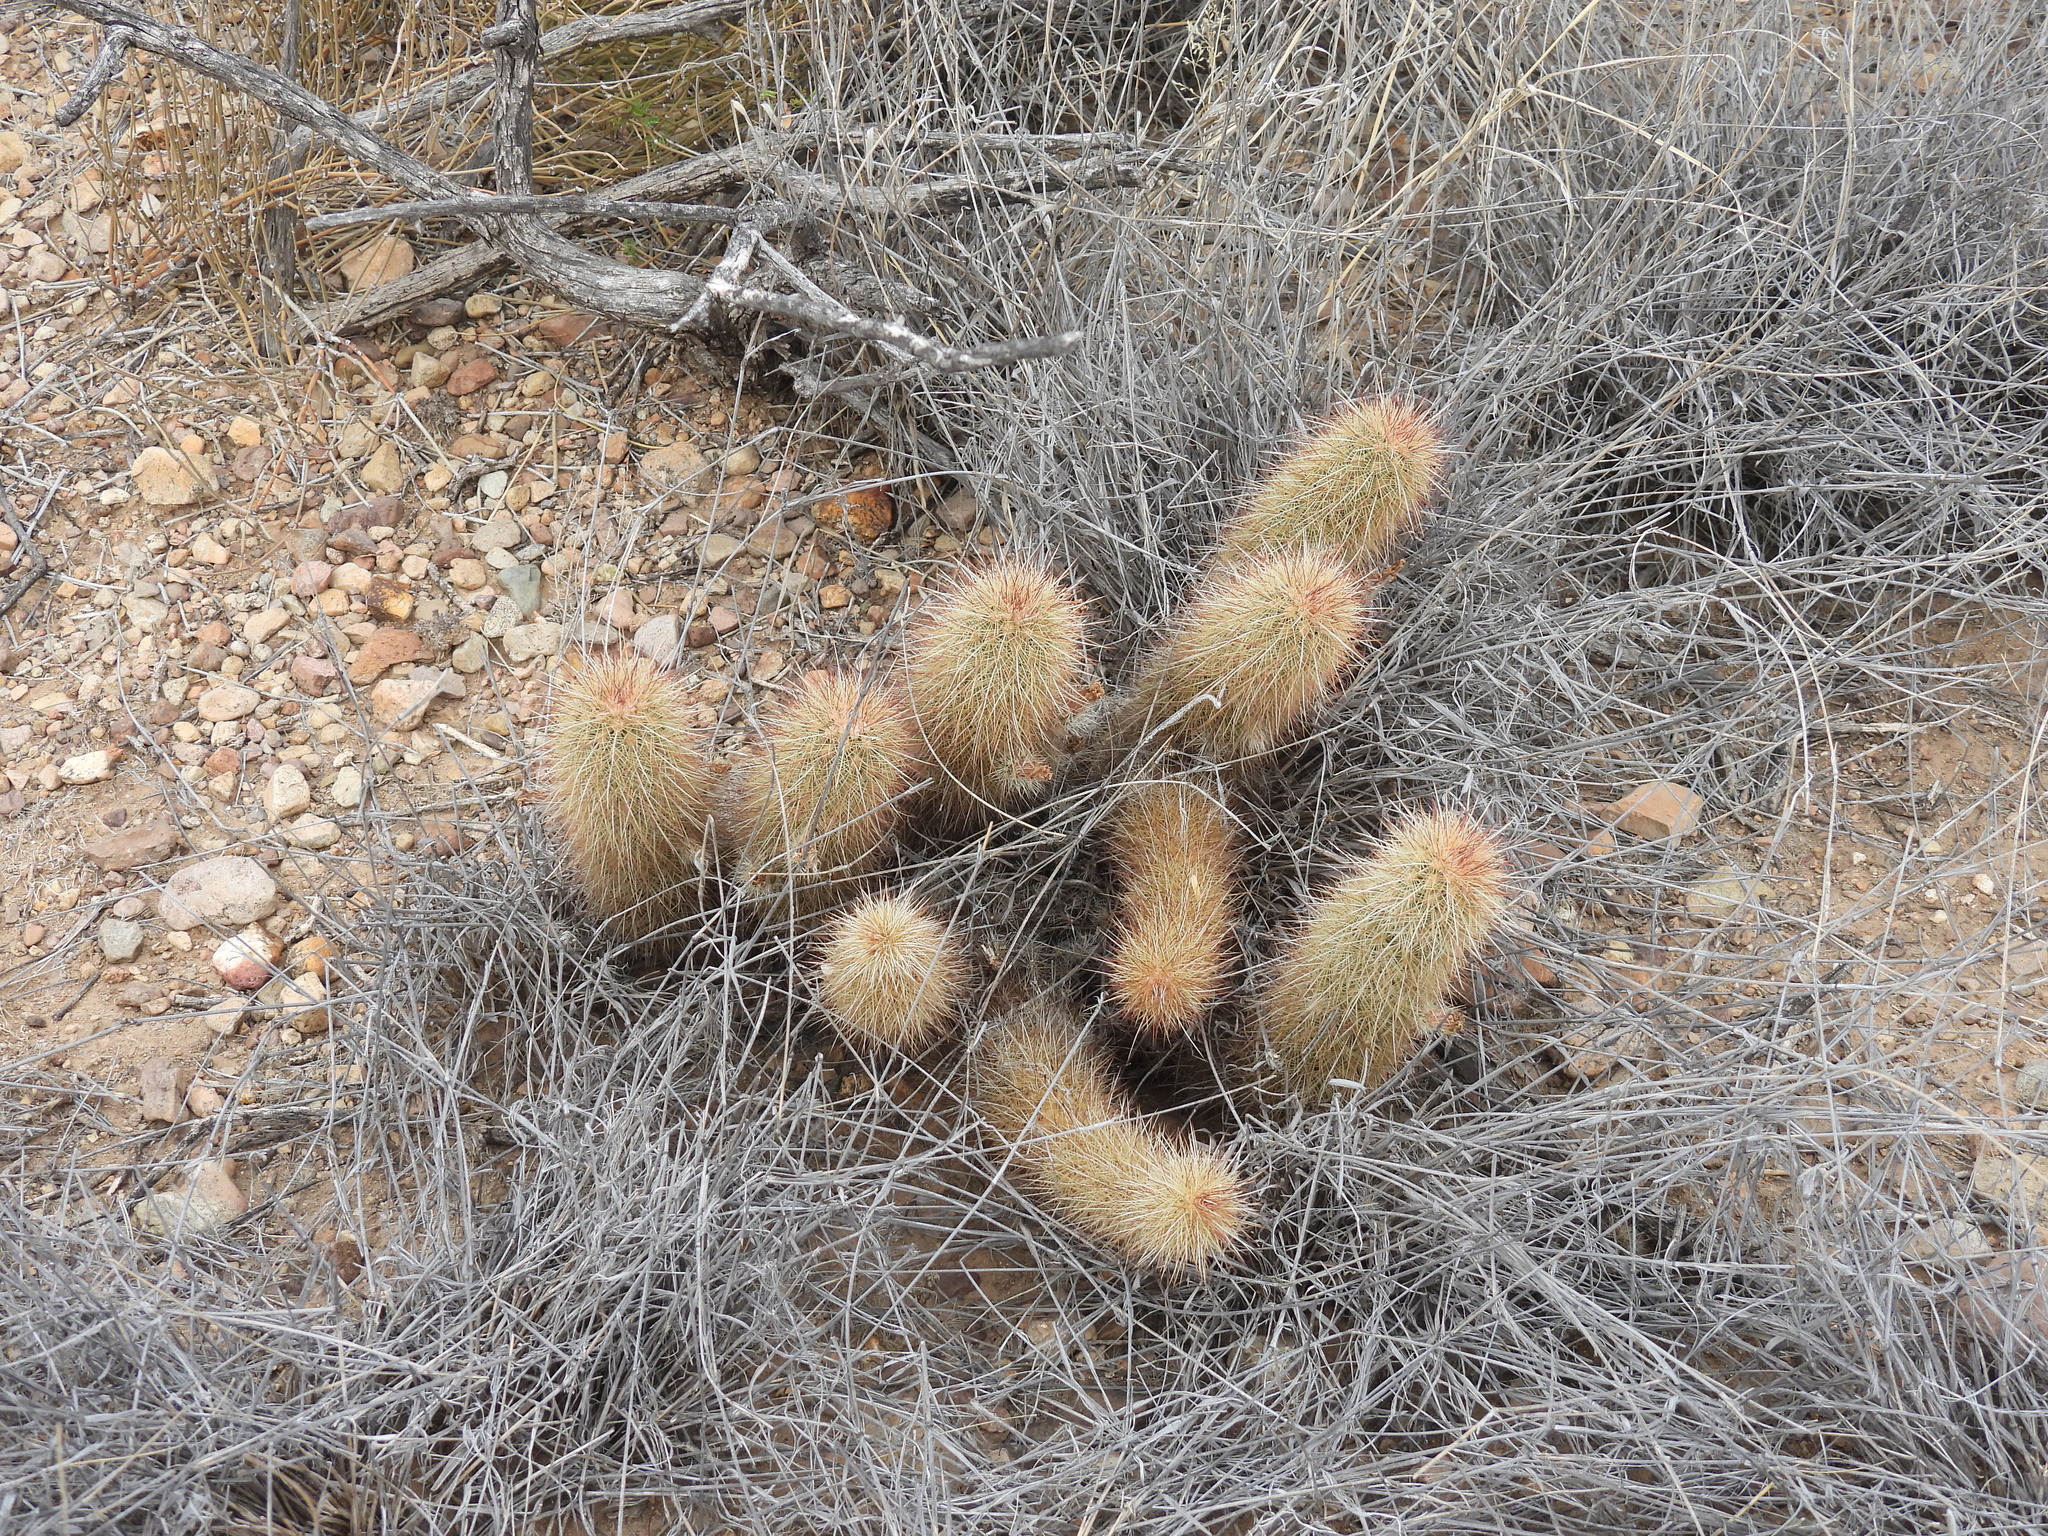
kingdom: Plantae
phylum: Tracheophyta
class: Magnoliopsida
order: Caryophyllales
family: Cactaceae
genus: Echinocereus
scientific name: Echinocereus russanthus
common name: Brownspine hedgehog cactus
